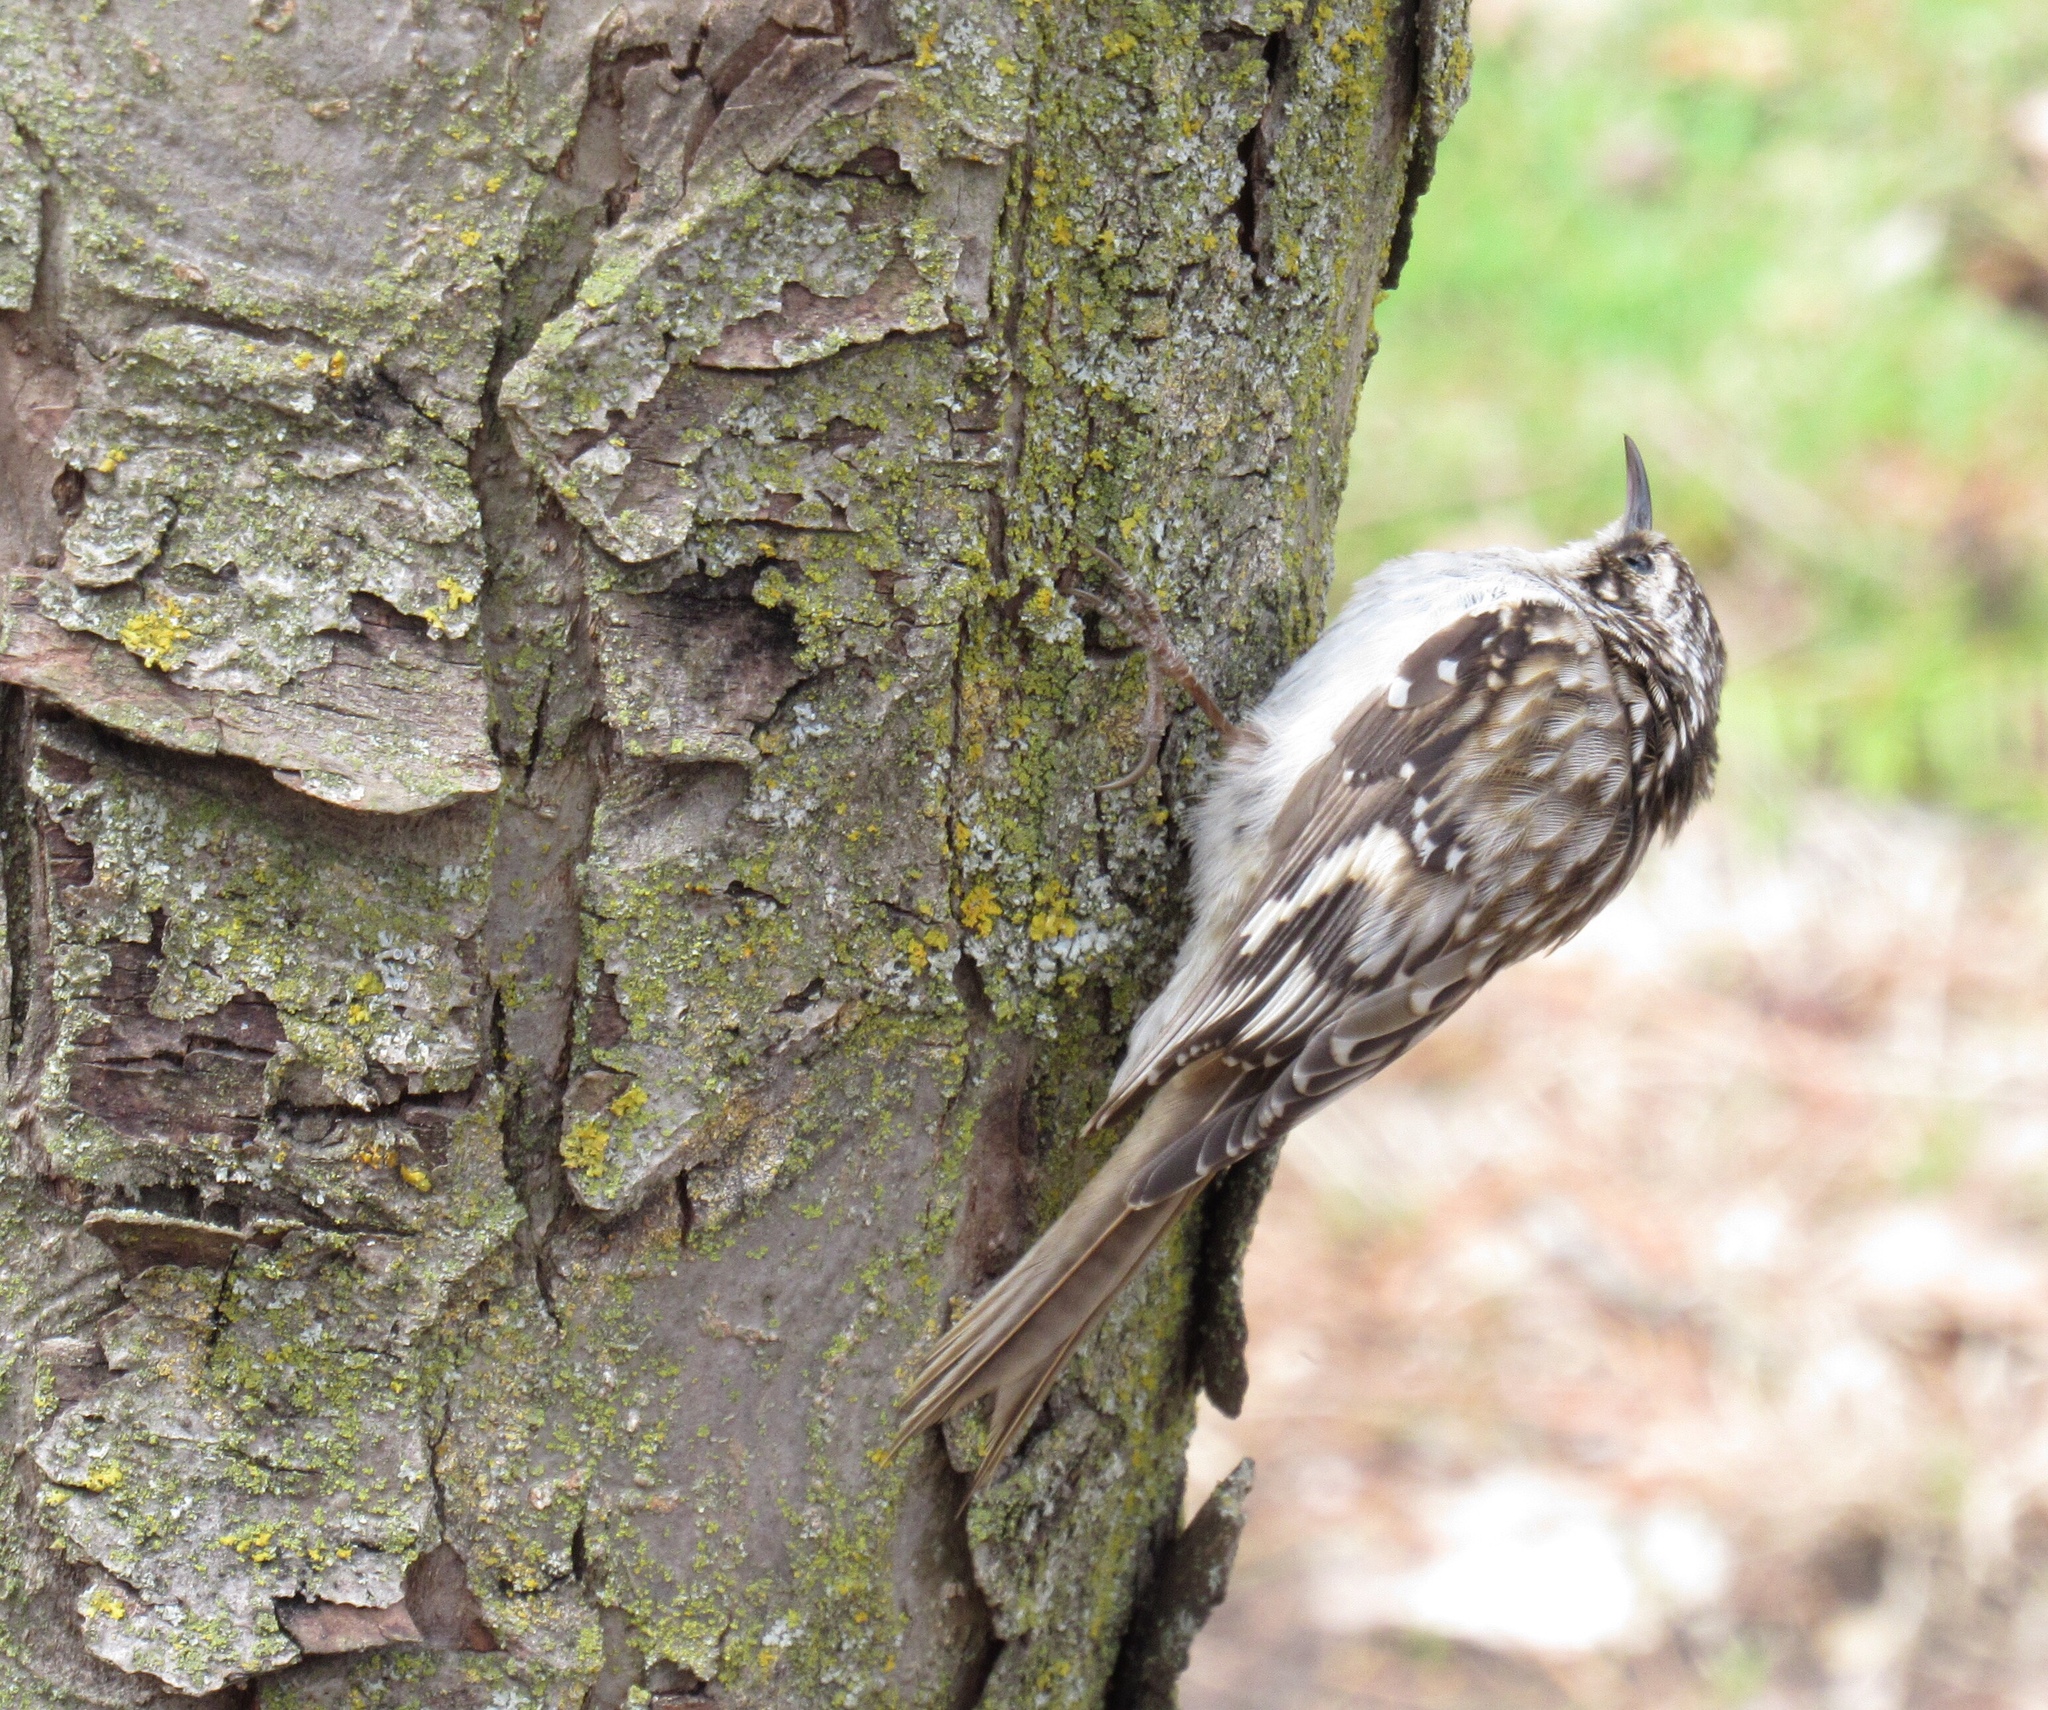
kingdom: Animalia
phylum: Chordata
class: Aves
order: Passeriformes
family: Certhiidae
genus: Certhia
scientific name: Certhia americana
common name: Brown creeper
